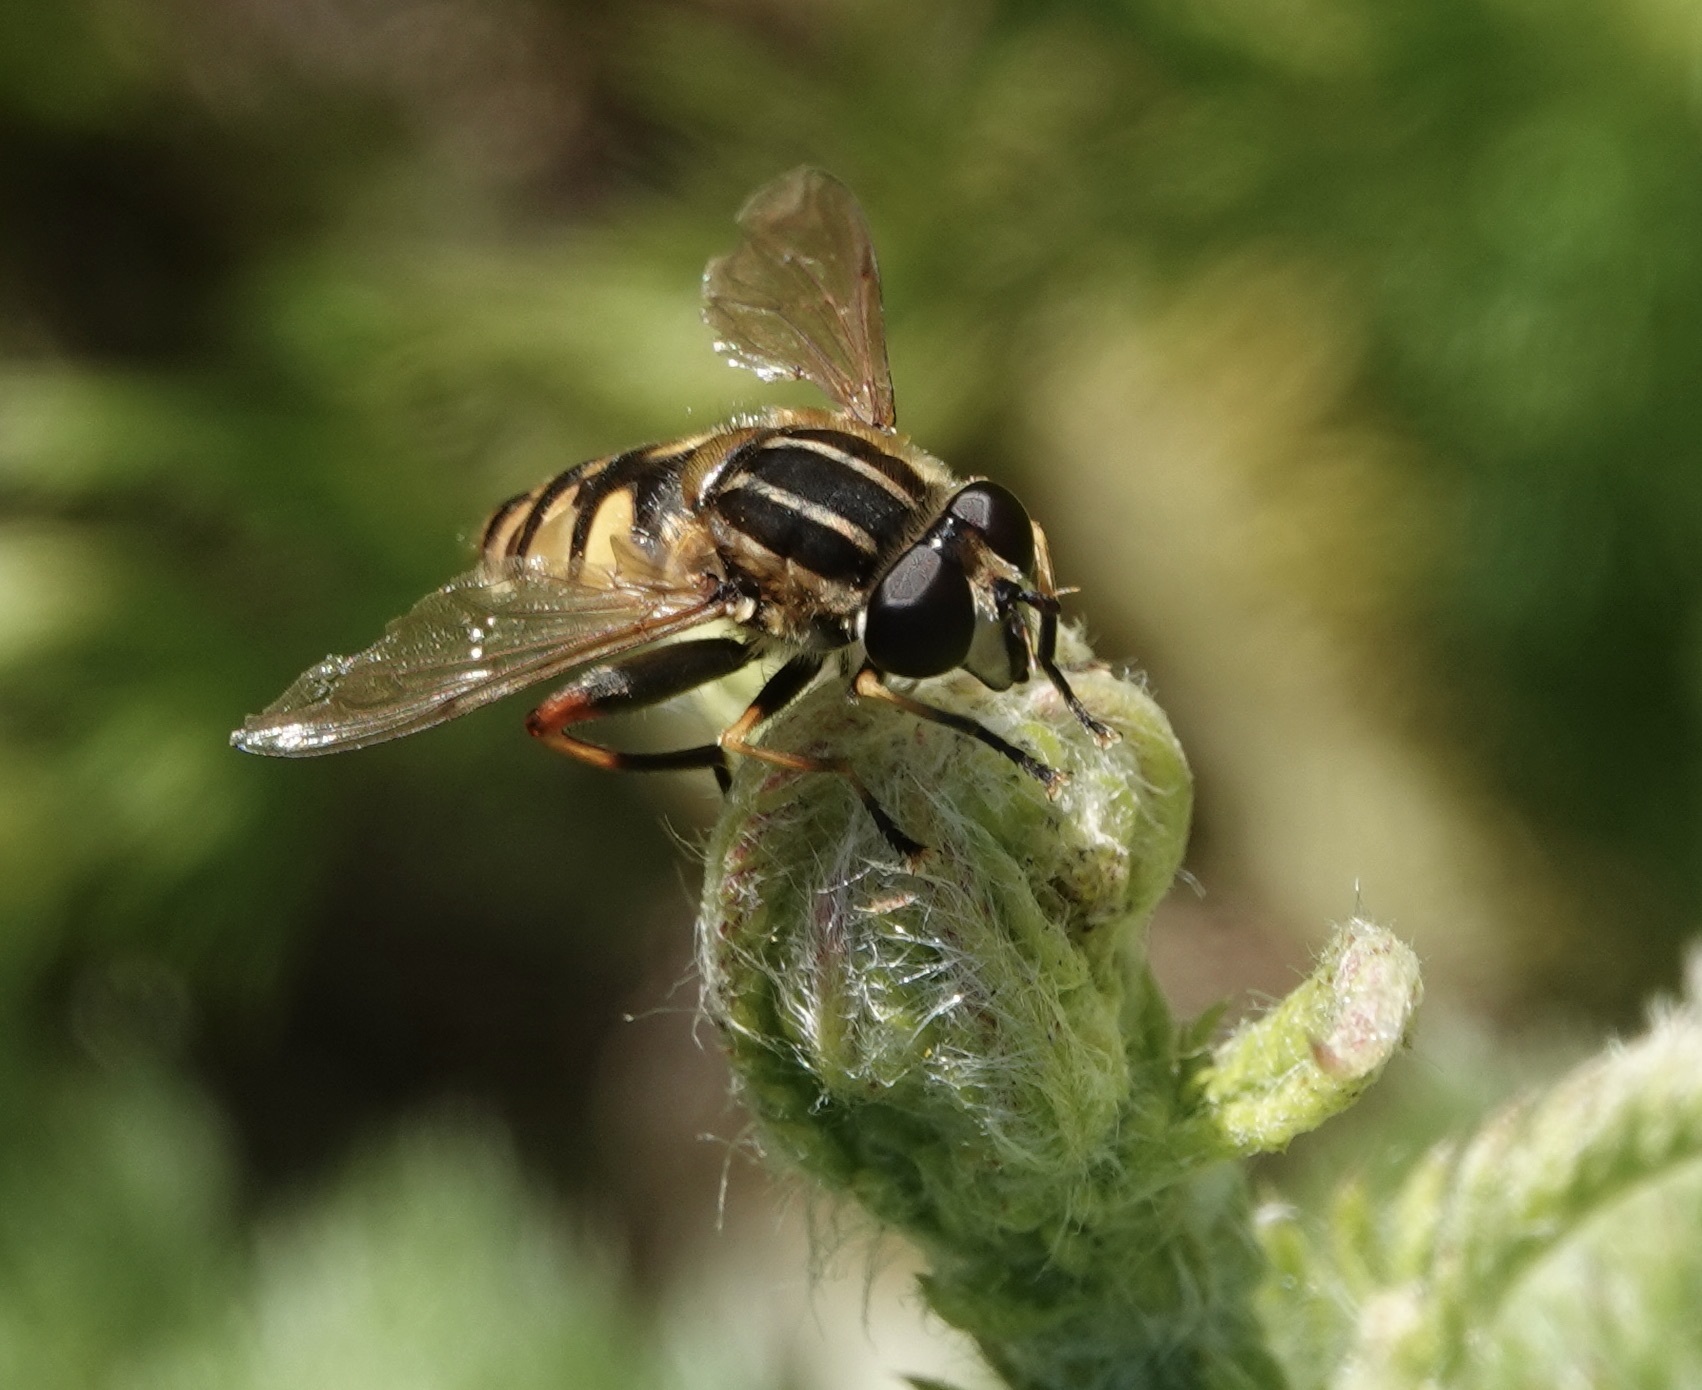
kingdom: Animalia
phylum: Arthropoda
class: Insecta
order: Diptera
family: Syrphidae
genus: Helophilus
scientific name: Helophilus pendulus
